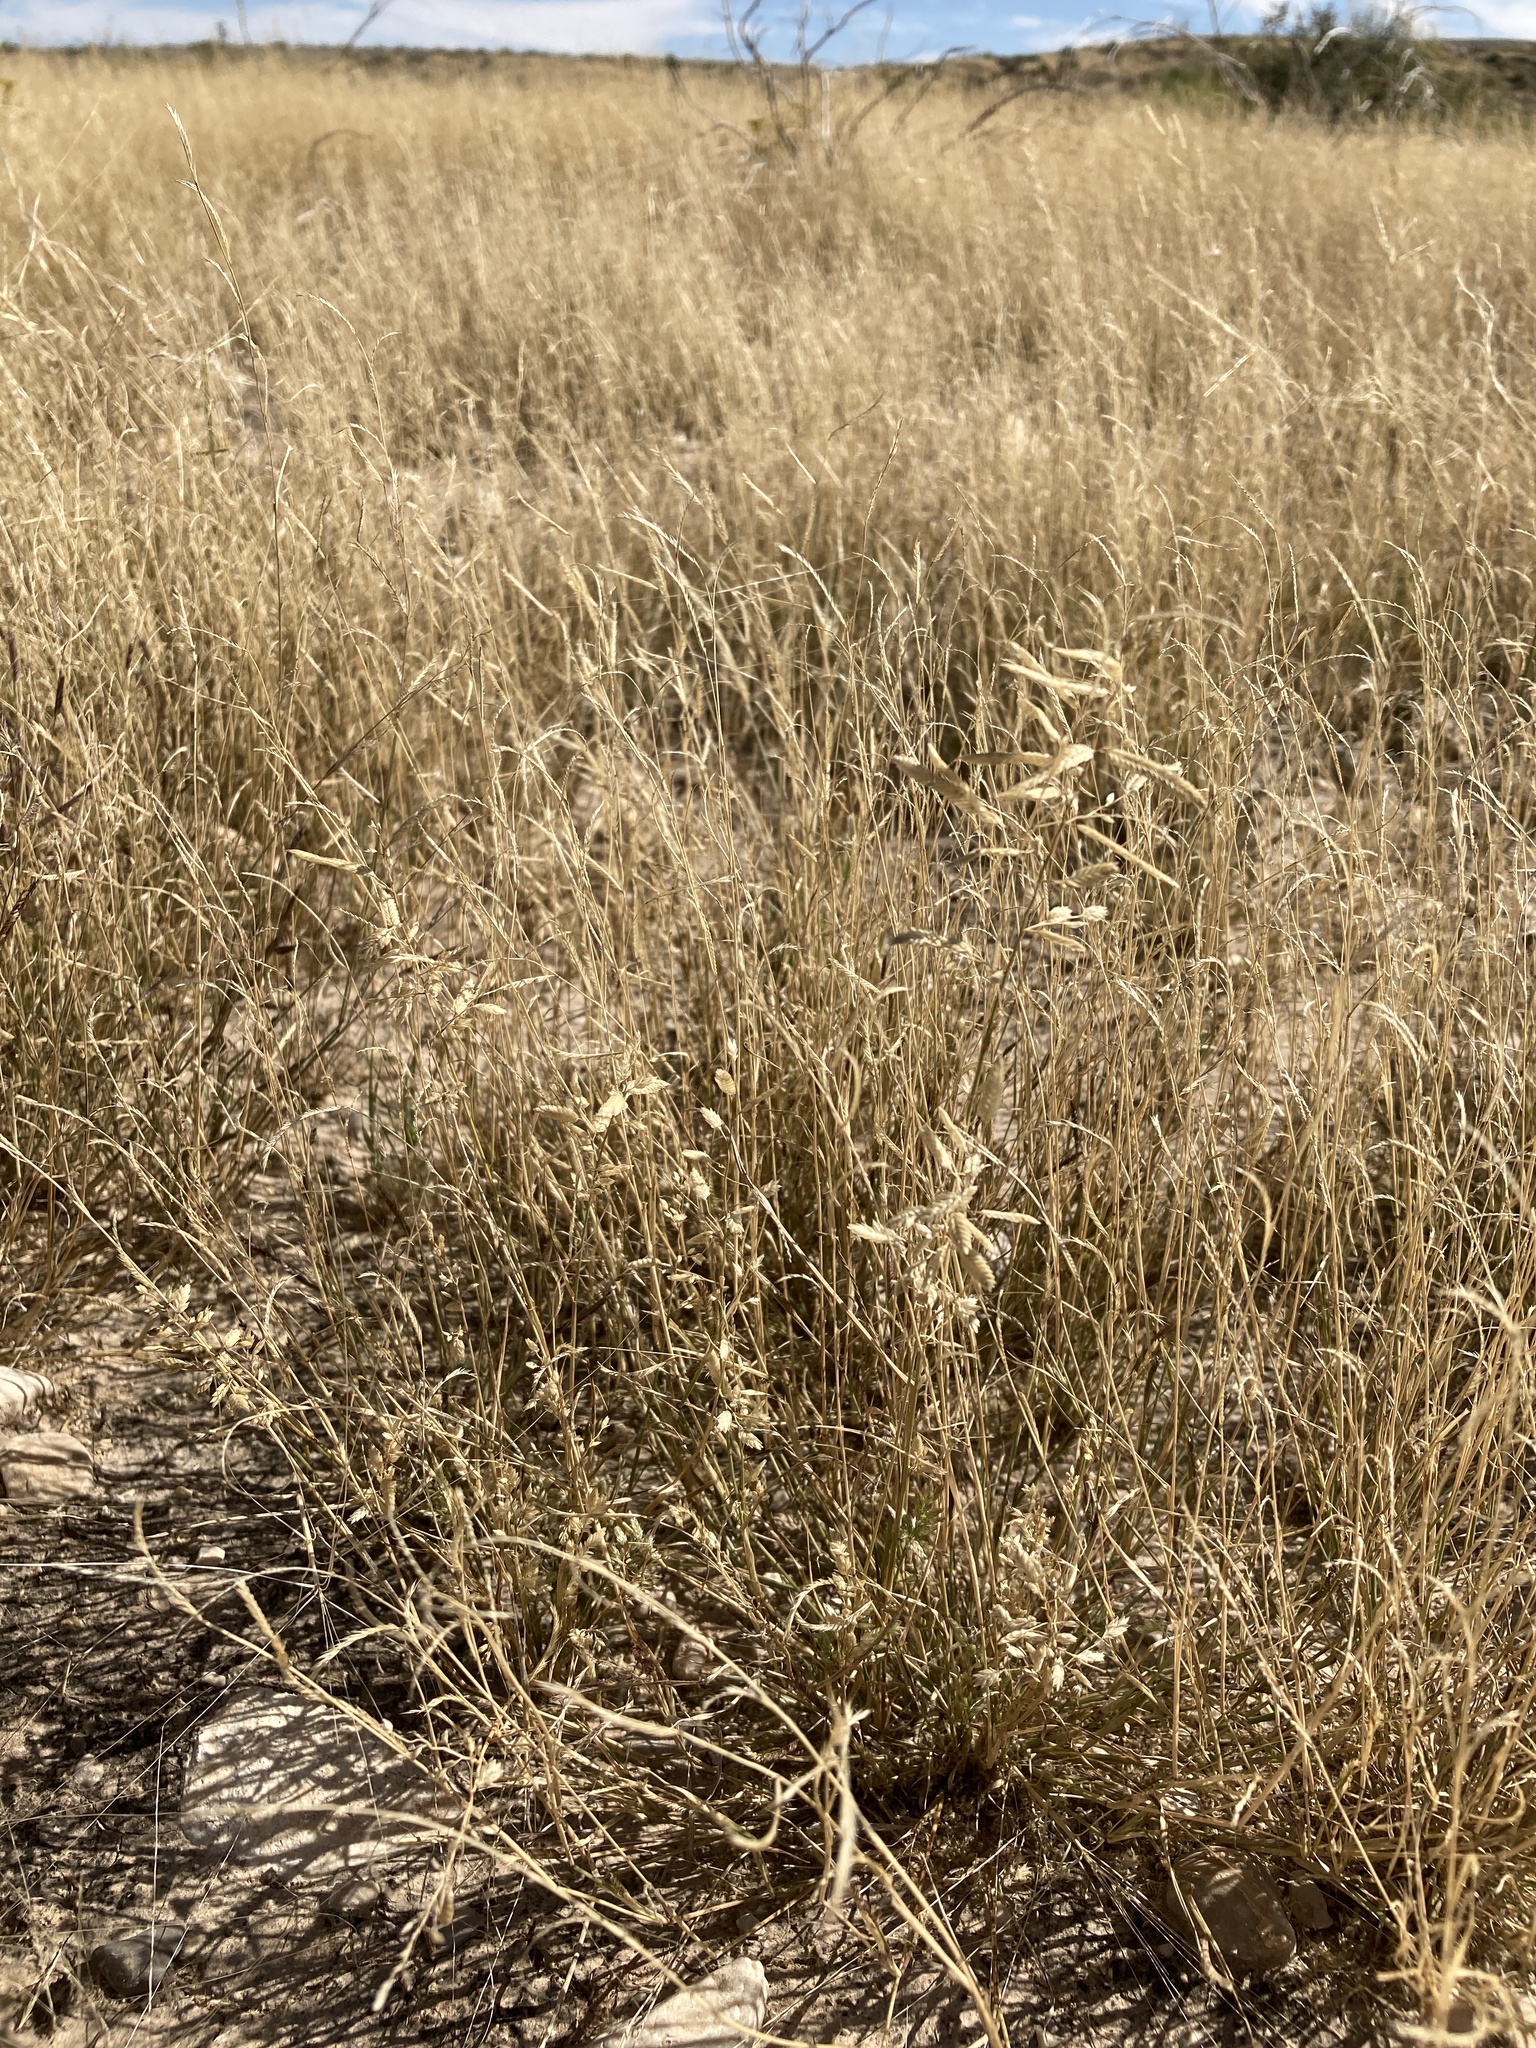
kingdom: Plantae
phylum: Tracheophyta
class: Liliopsida
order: Poales
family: Poaceae
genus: Eragrostis
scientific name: Eragrostis cilianensis
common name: Stinkgrass
